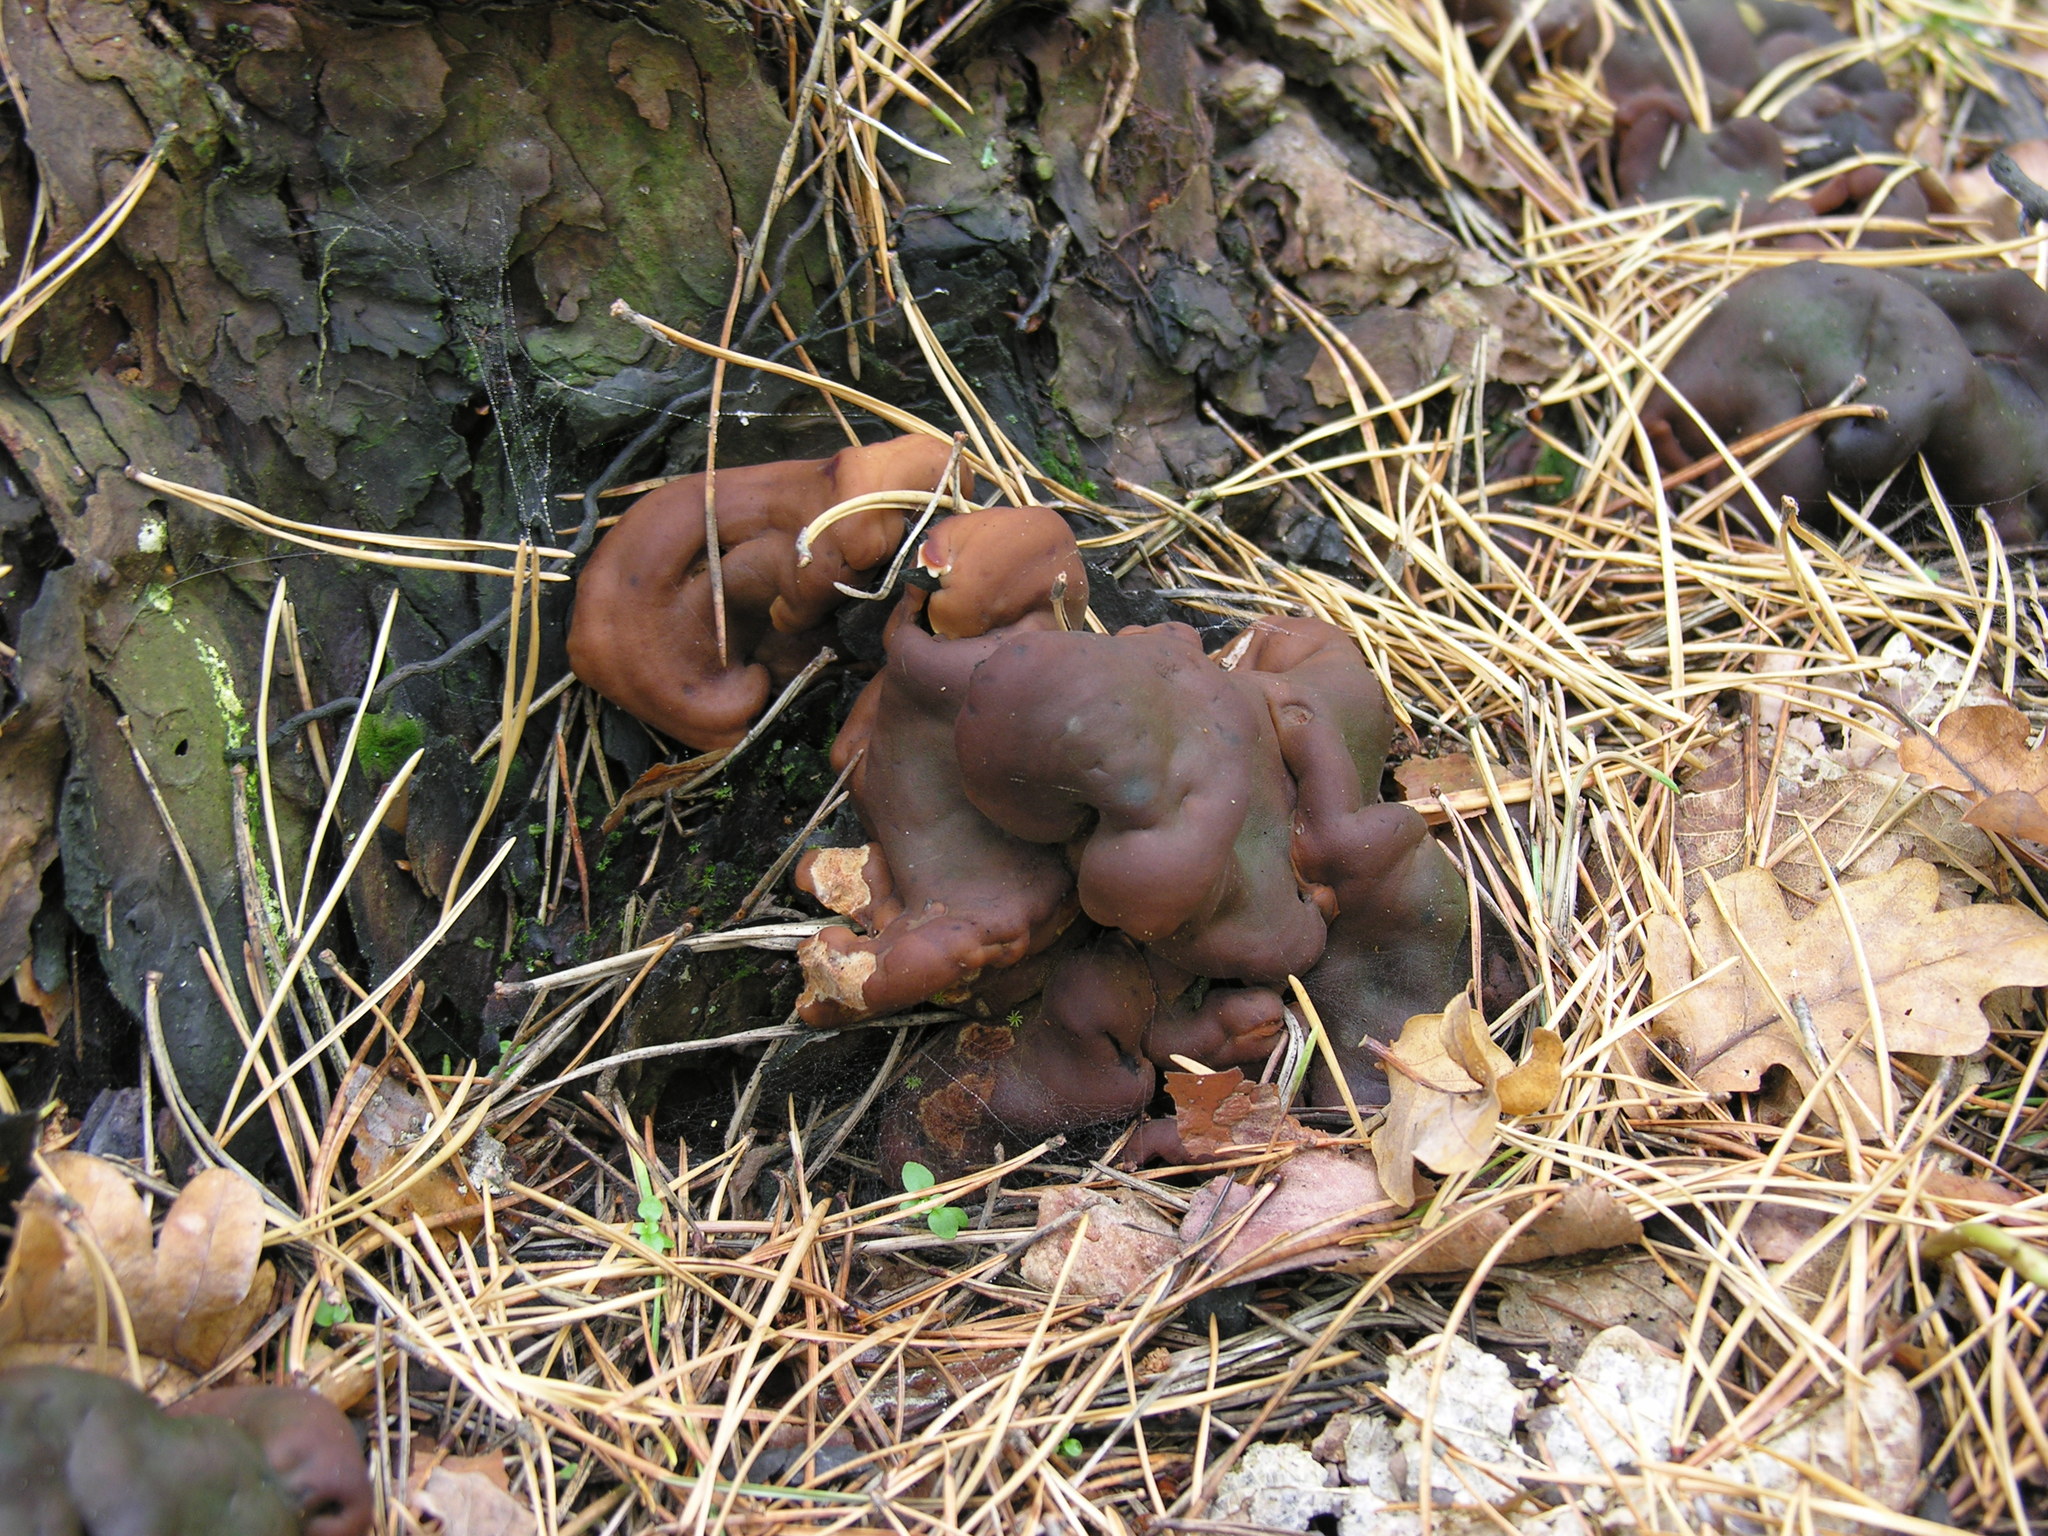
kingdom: Fungi
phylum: Ascomycota
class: Pezizomycetes
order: Pezizales
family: Rhizinaceae
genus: Rhizina
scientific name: Rhizina undulata
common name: Pine firefungus
